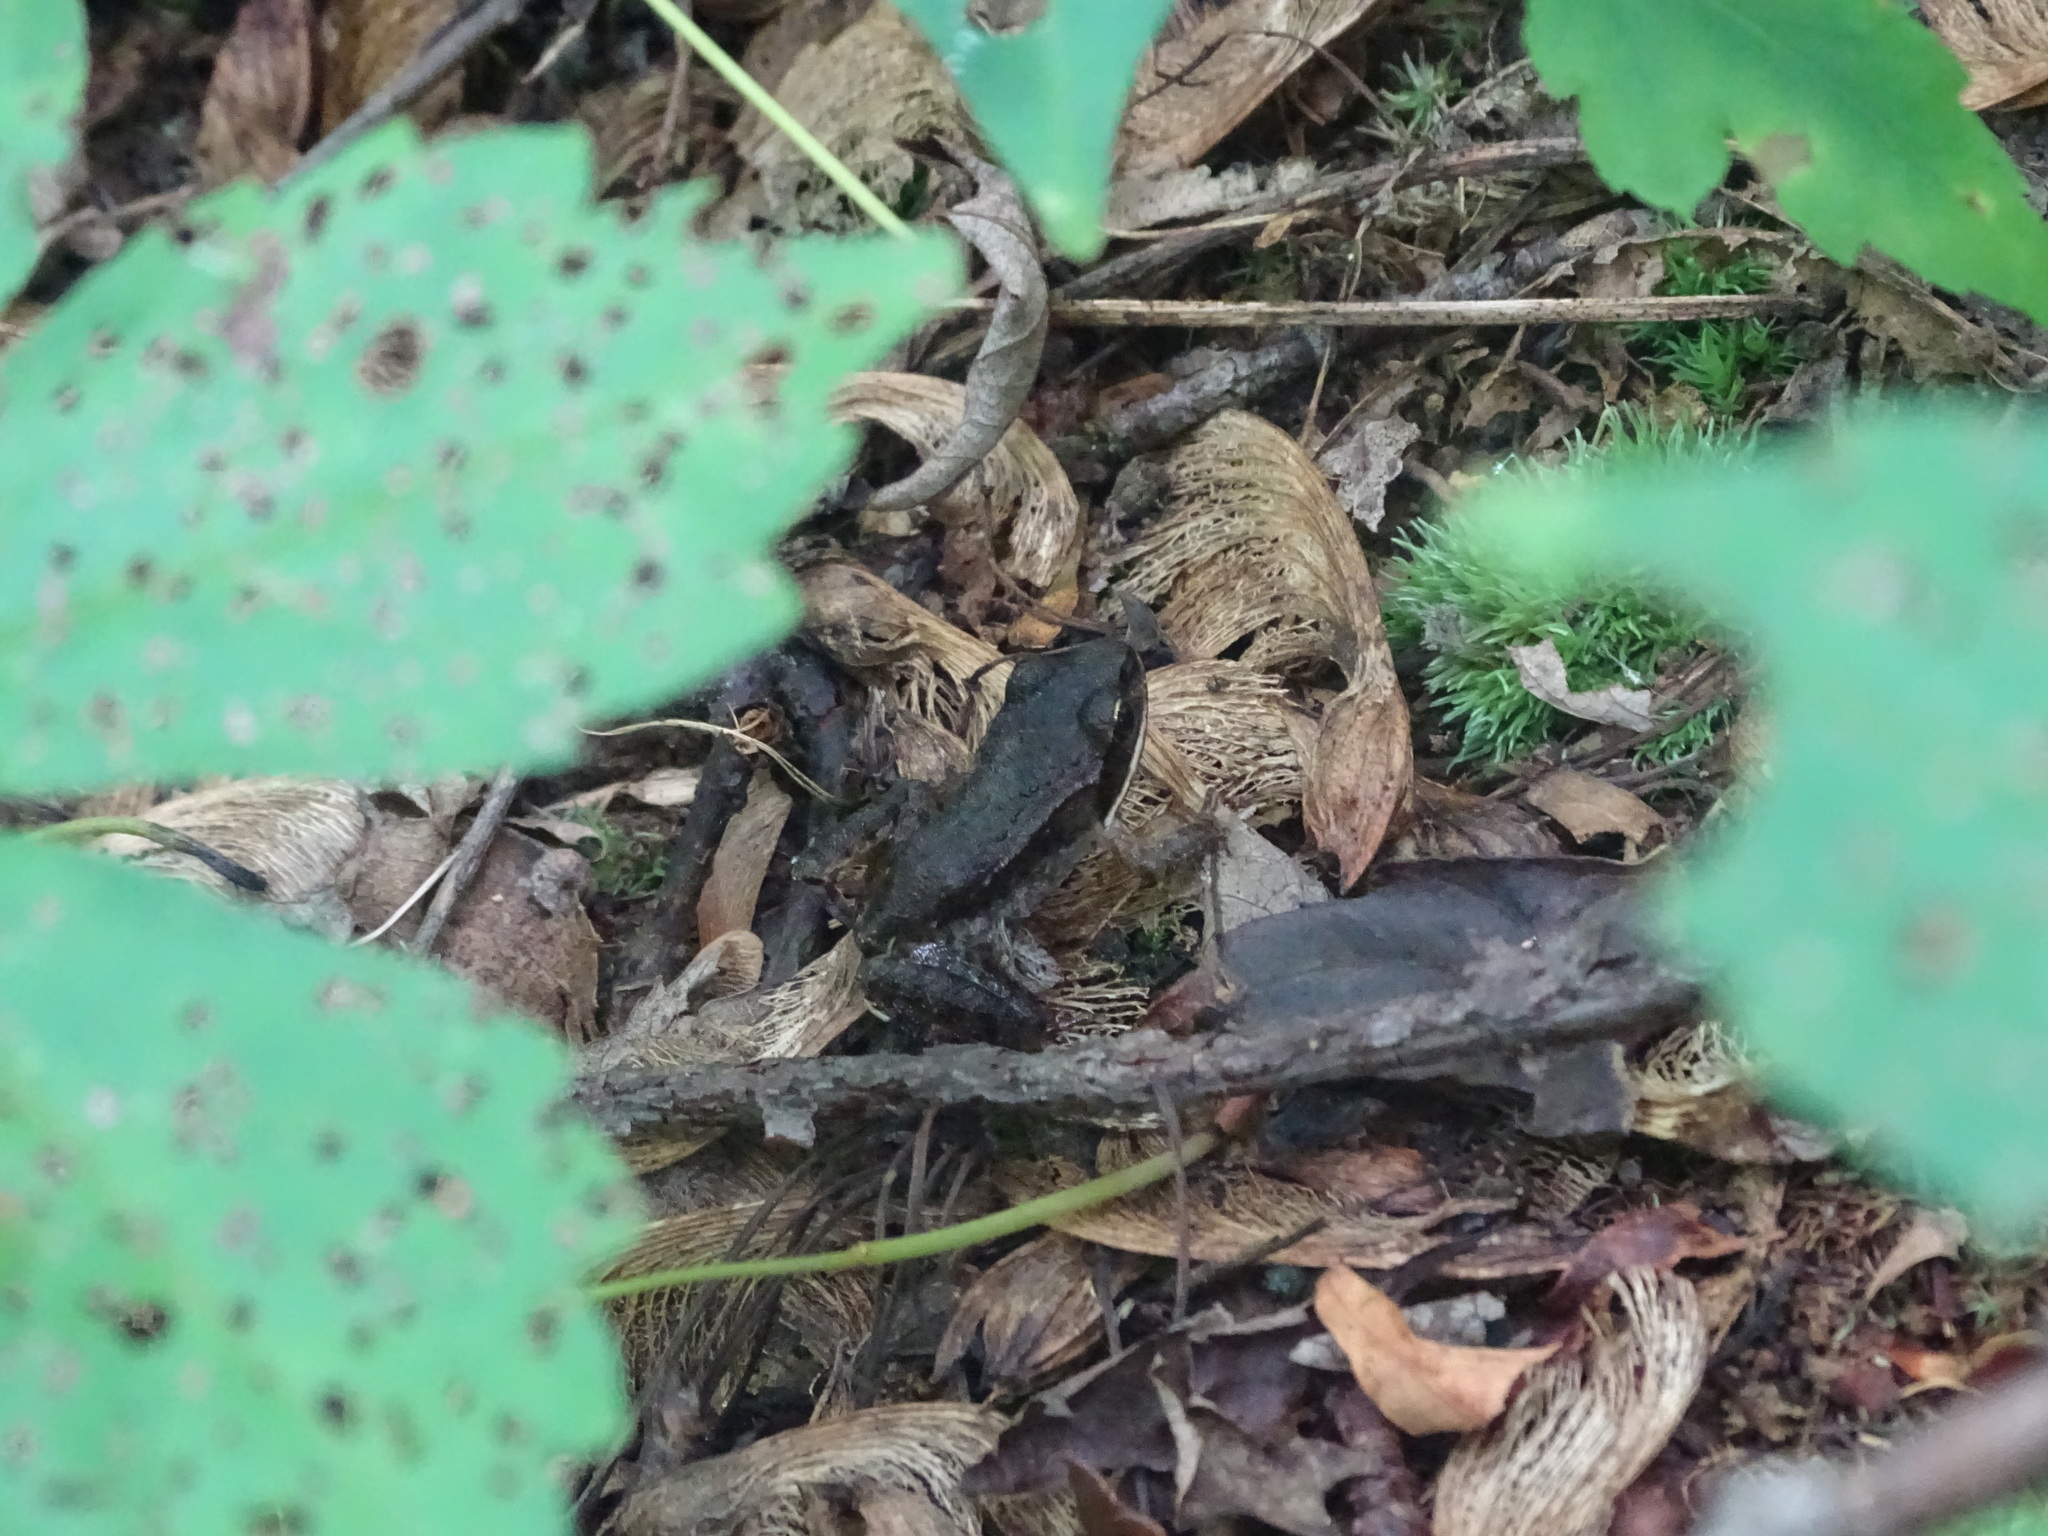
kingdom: Animalia
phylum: Chordata
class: Amphibia
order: Anura
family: Ranidae
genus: Lithobates
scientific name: Lithobates sylvaticus
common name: Wood frog
